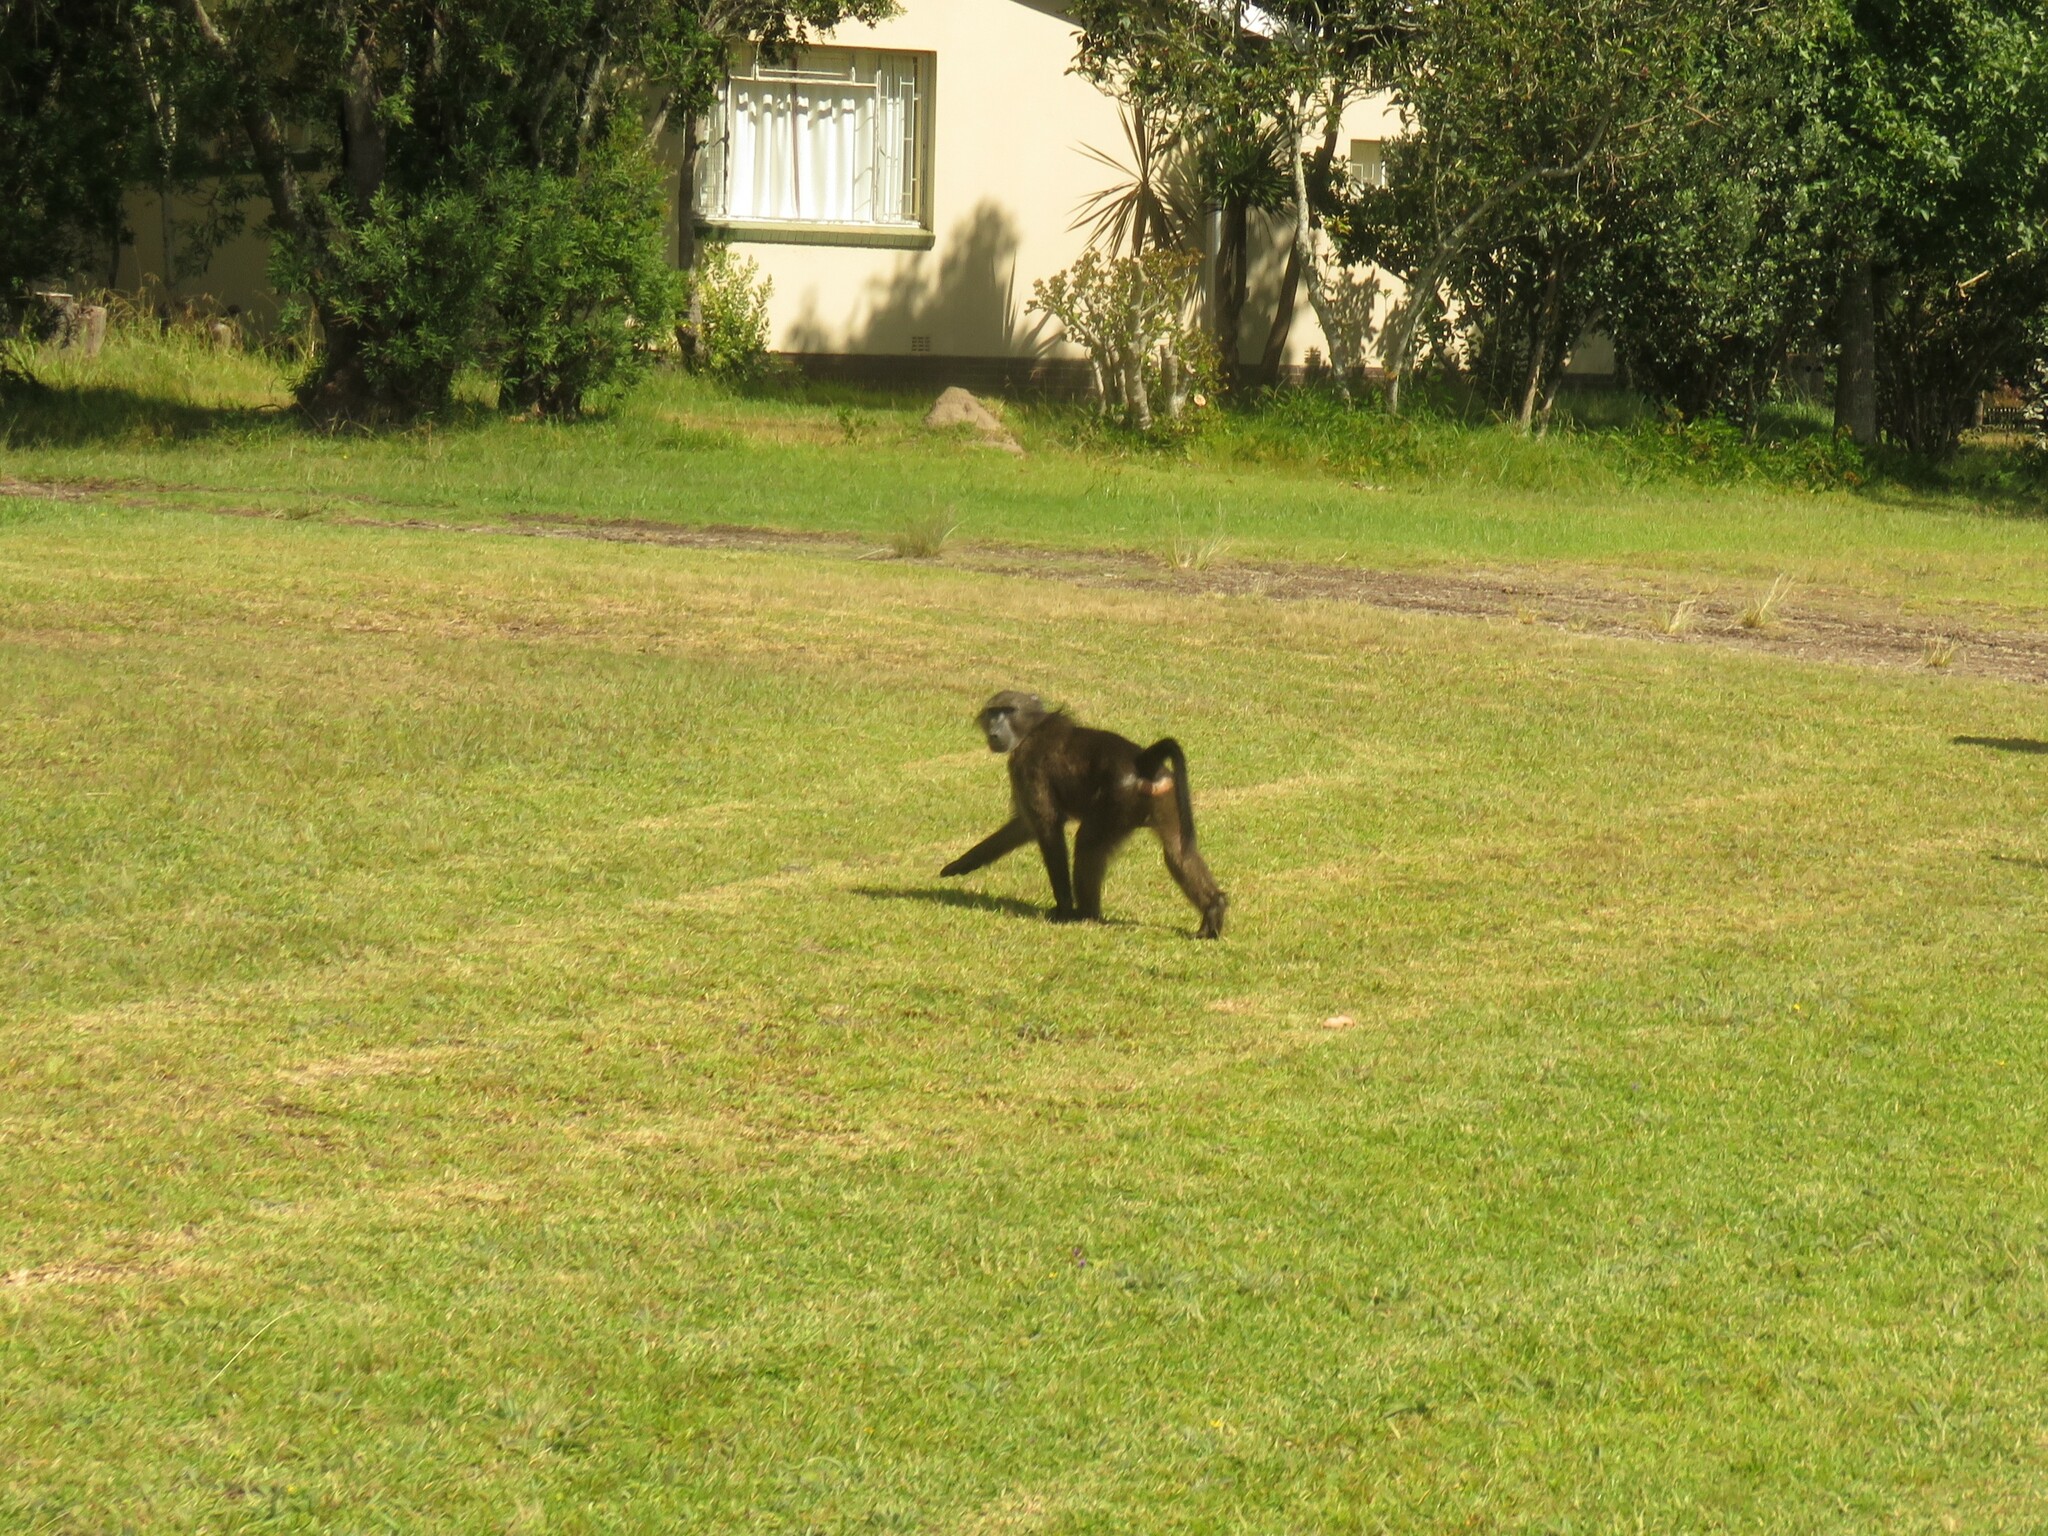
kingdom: Animalia
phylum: Chordata
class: Mammalia
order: Primates
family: Cercopithecidae
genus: Papio
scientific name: Papio ursinus
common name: Chacma baboon
